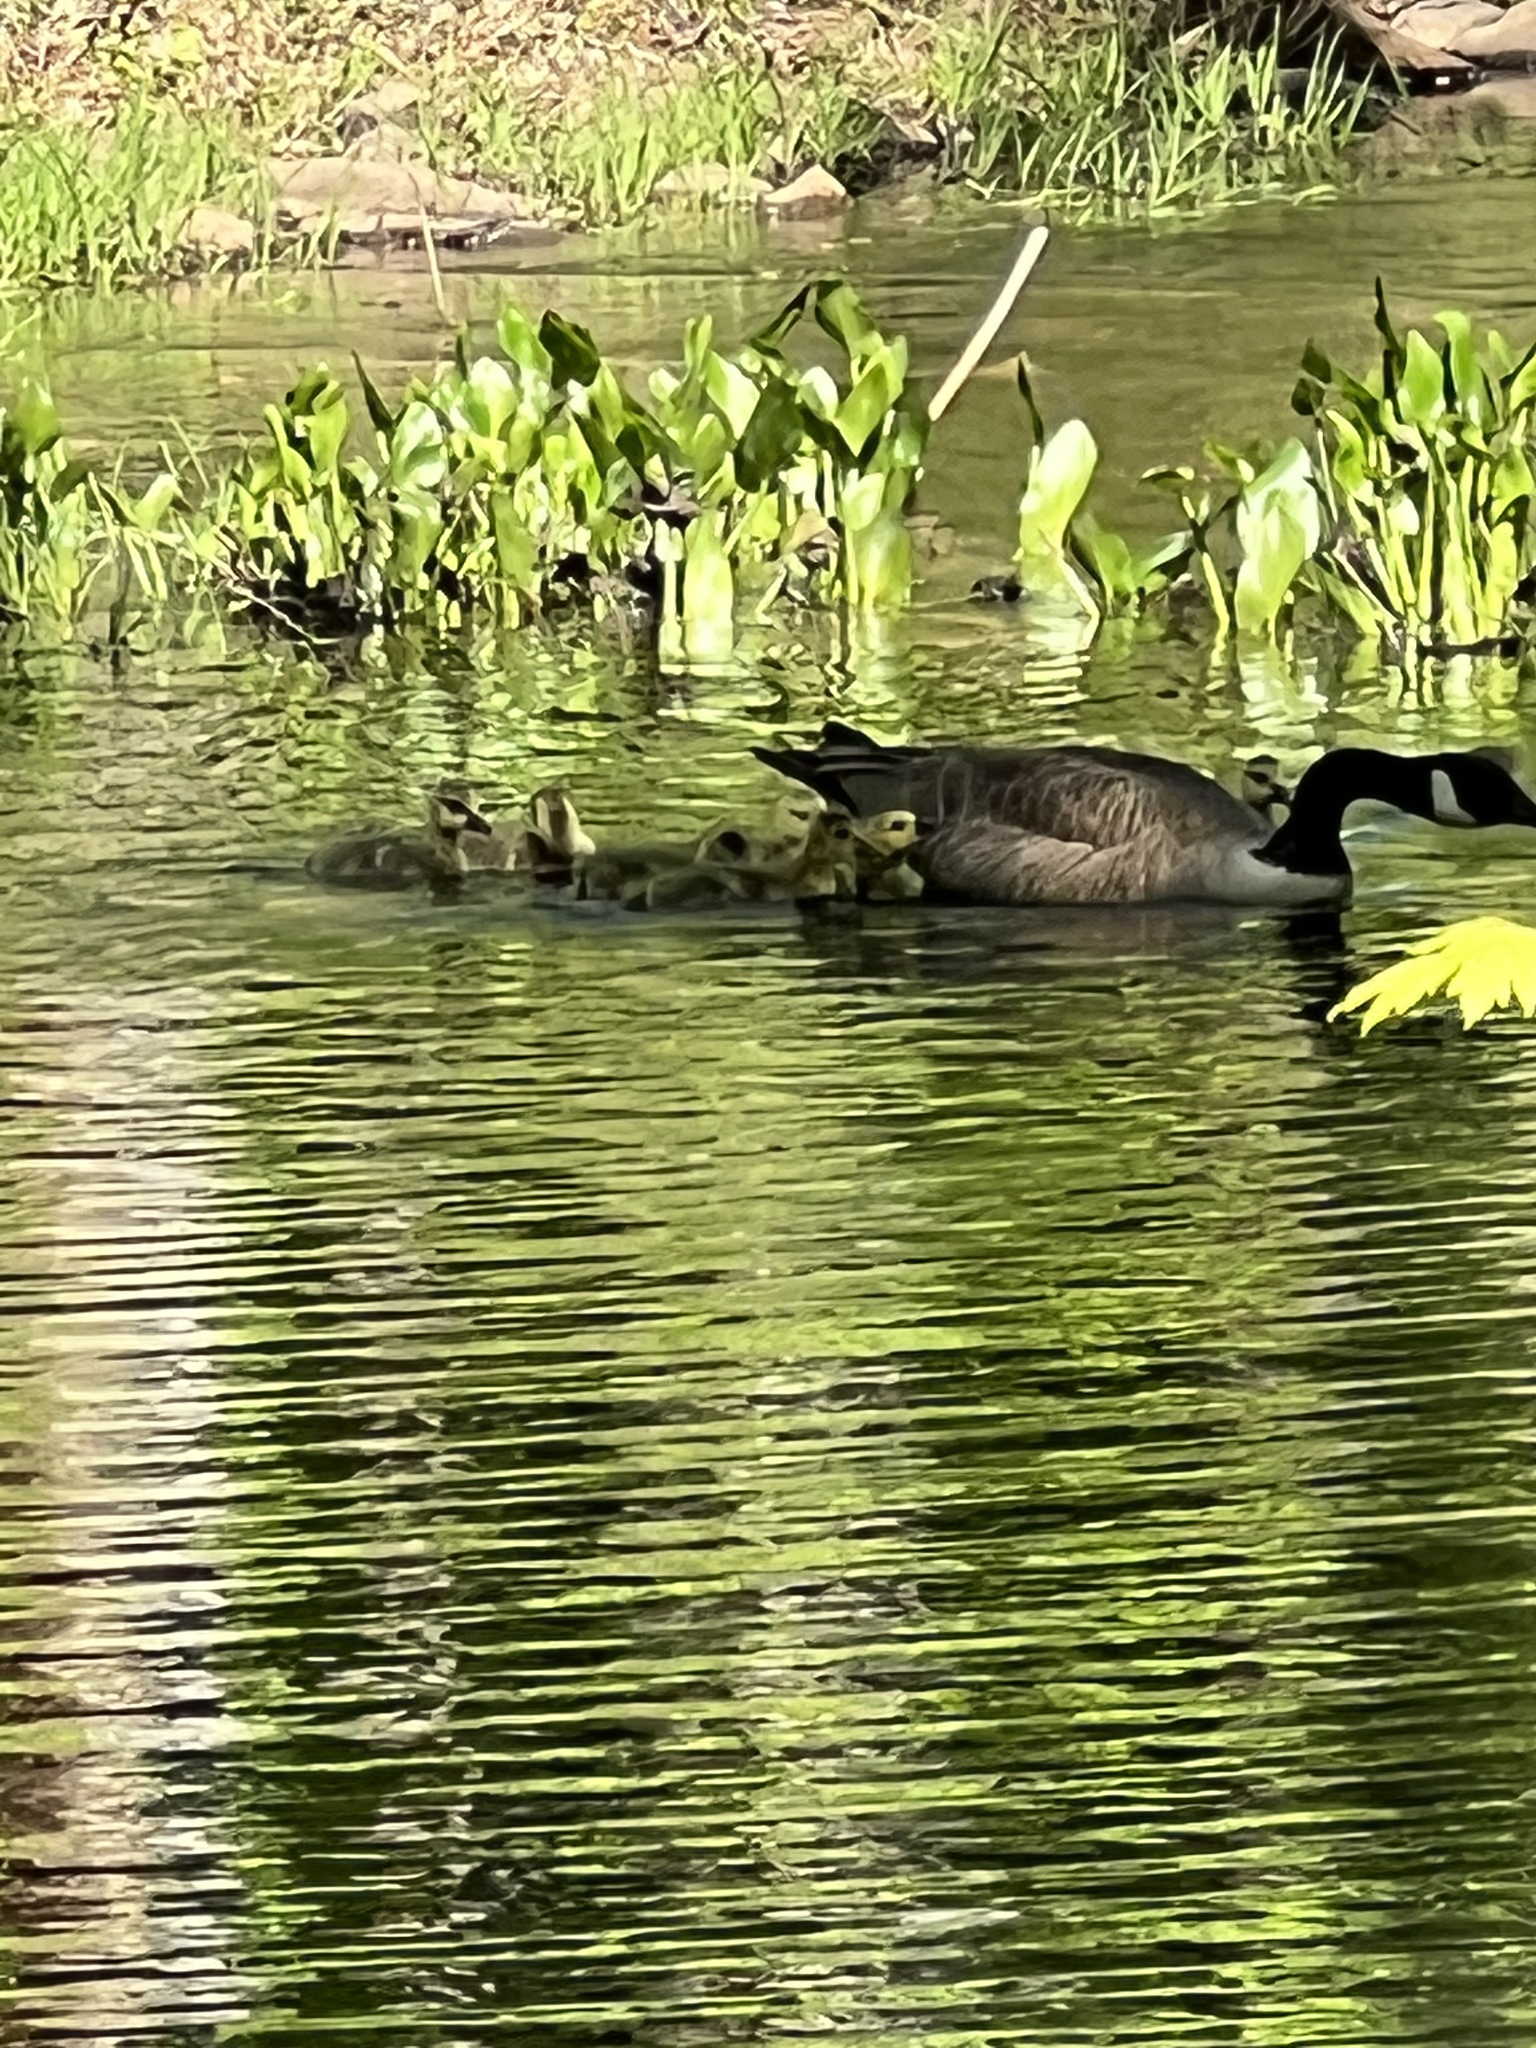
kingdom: Animalia
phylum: Chordata
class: Aves
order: Anseriformes
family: Anatidae
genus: Branta
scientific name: Branta canadensis
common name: Canada goose
